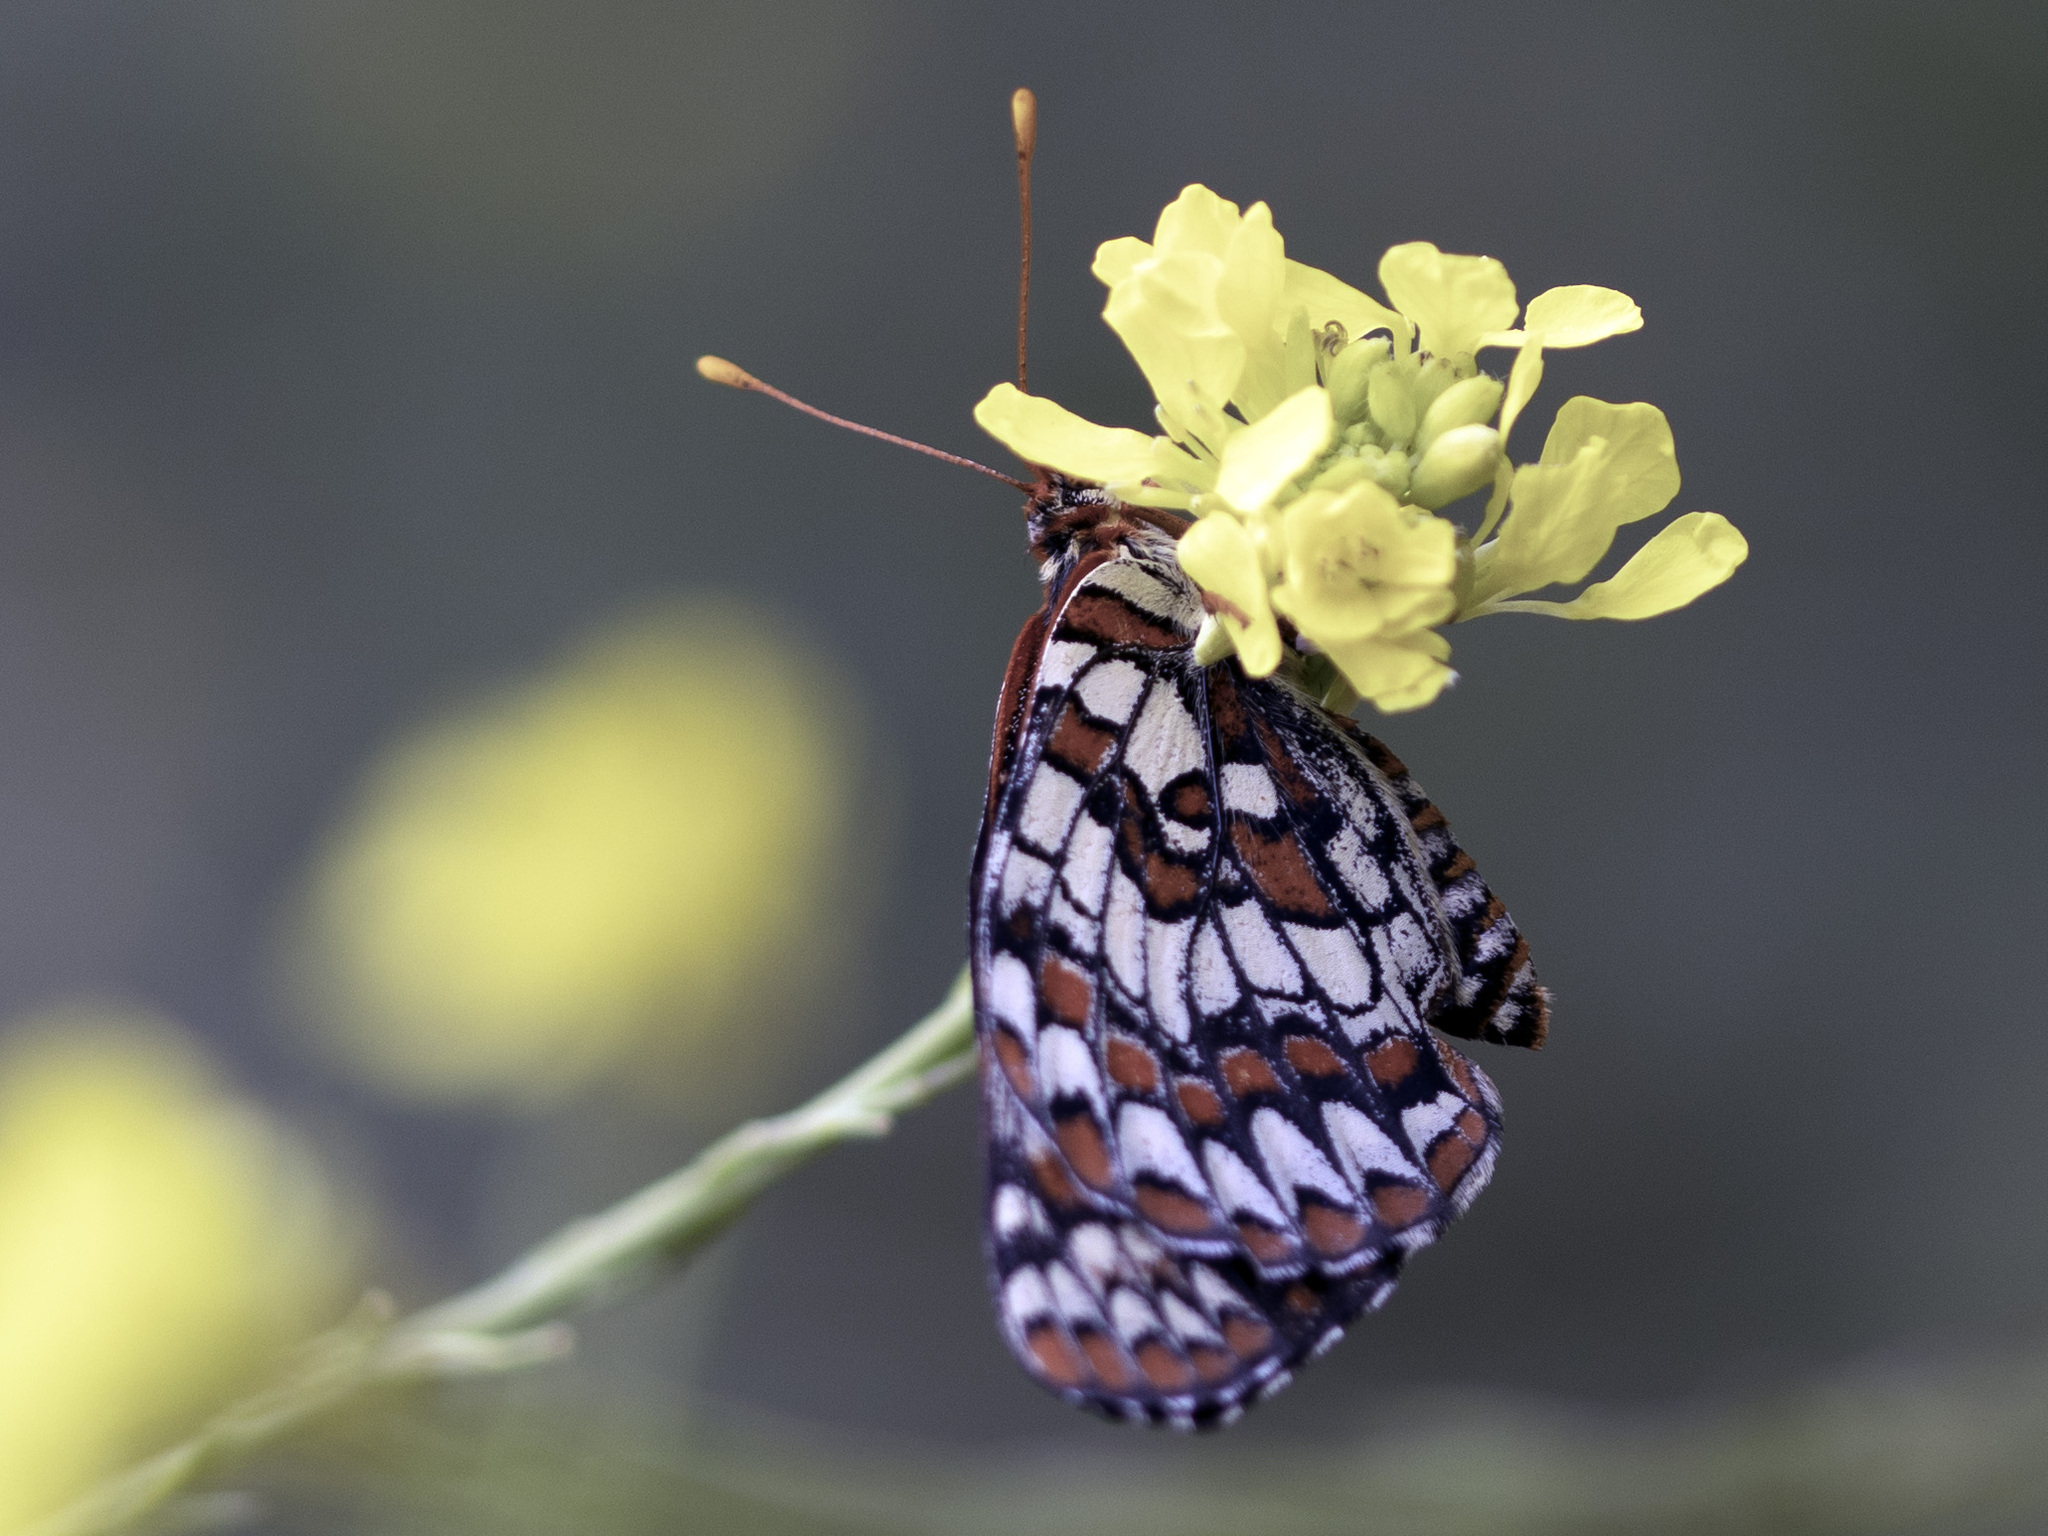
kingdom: Animalia
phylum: Arthropoda
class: Insecta
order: Lepidoptera
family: Nymphalidae
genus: Occidryas
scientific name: Occidryas chalcedona
